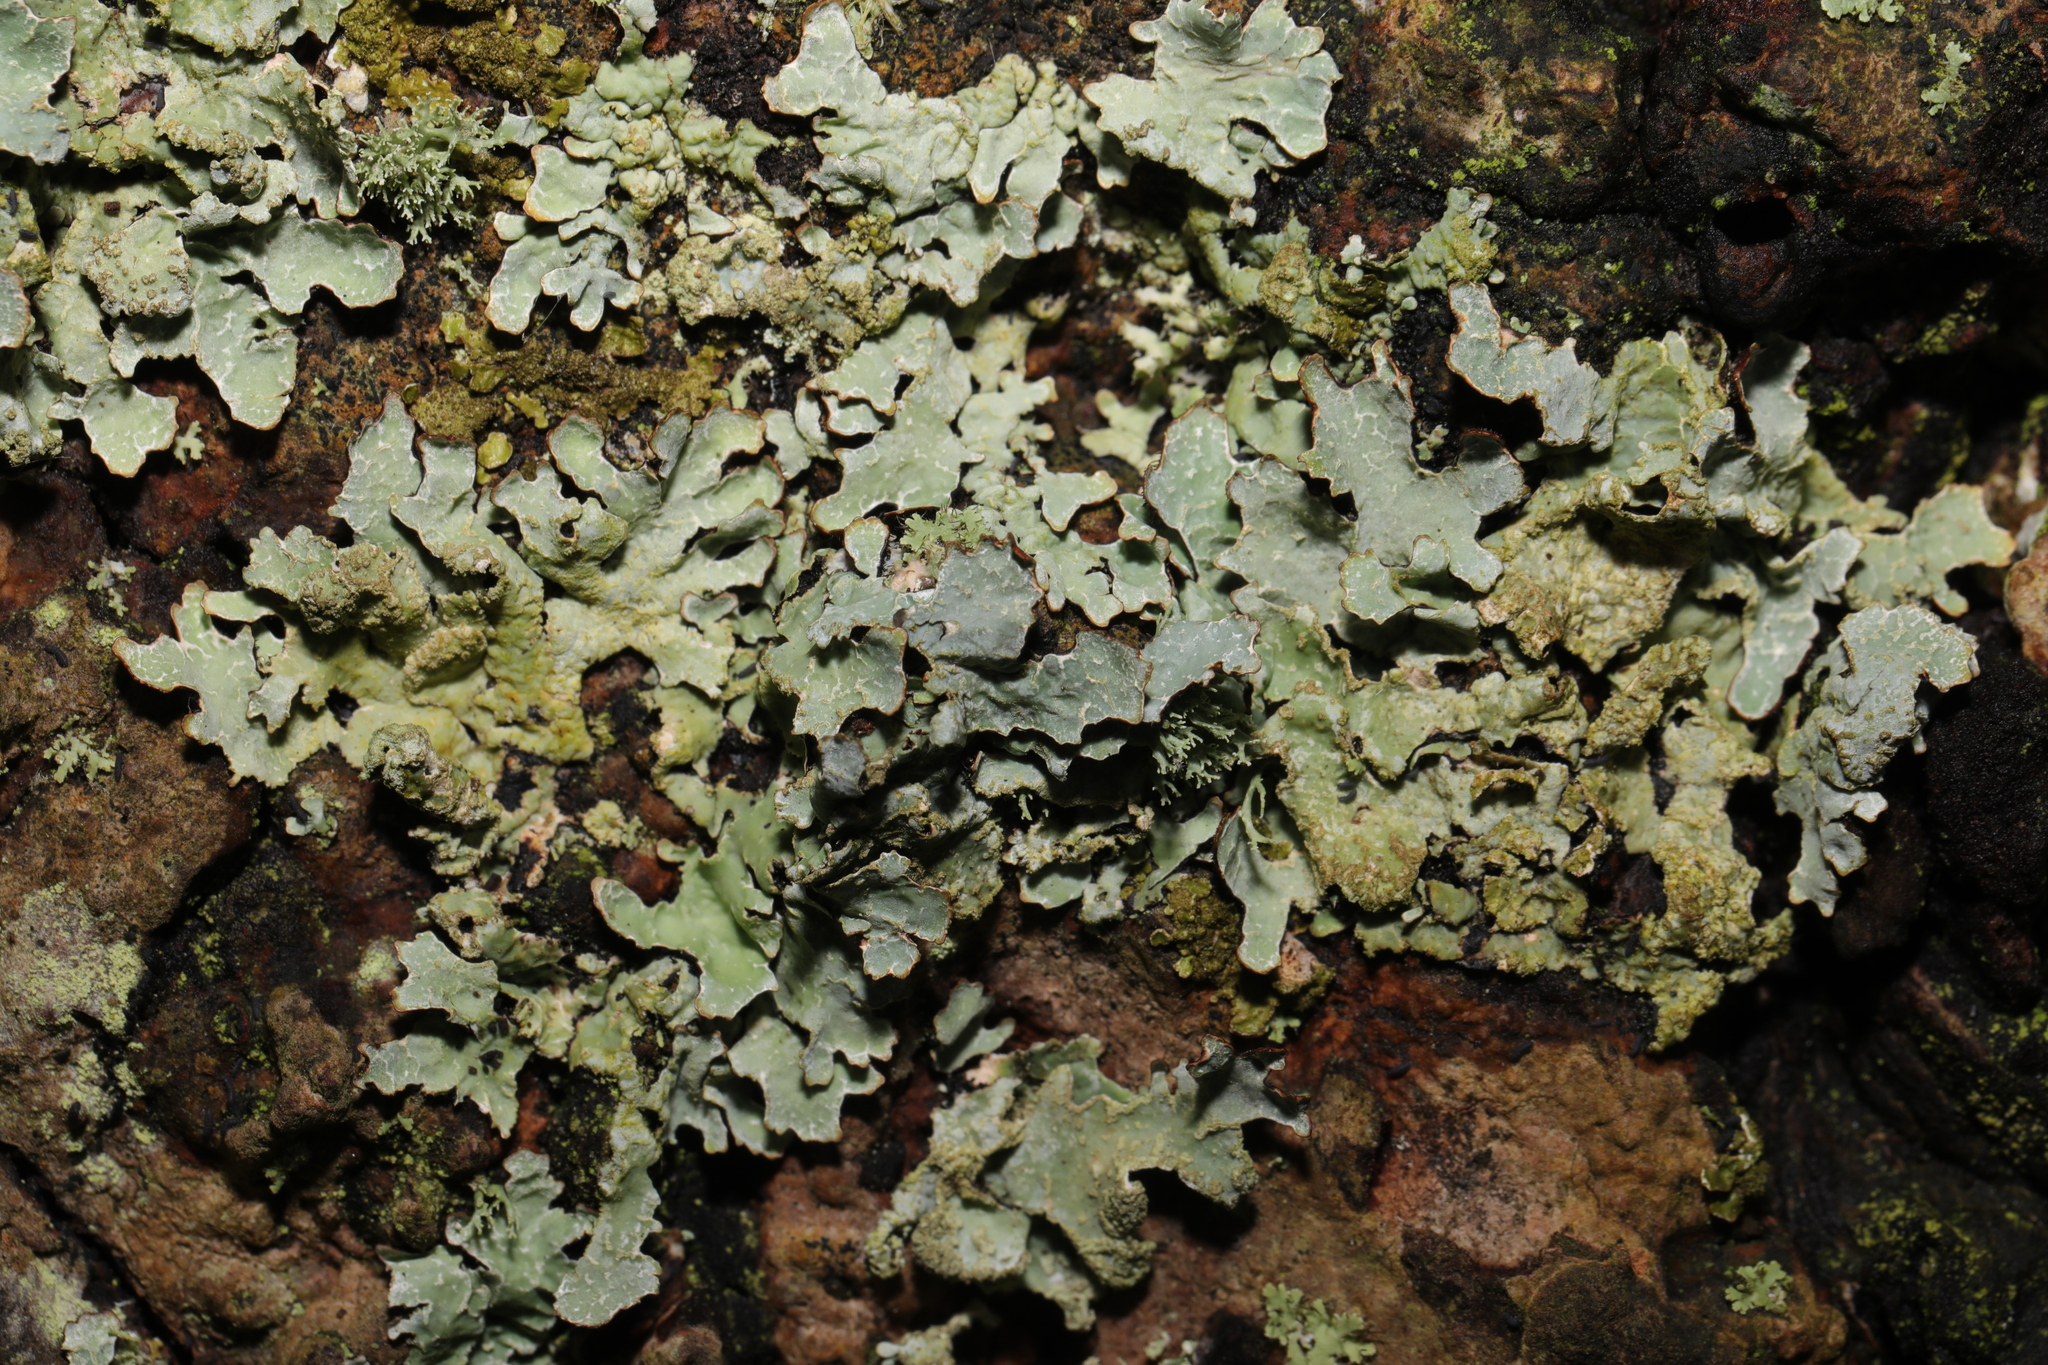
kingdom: Fungi
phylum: Ascomycota
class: Lecanoromycetes
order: Lecanorales
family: Parmeliaceae
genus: Parmelia
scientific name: Parmelia sulcata
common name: Netted shield lichen
